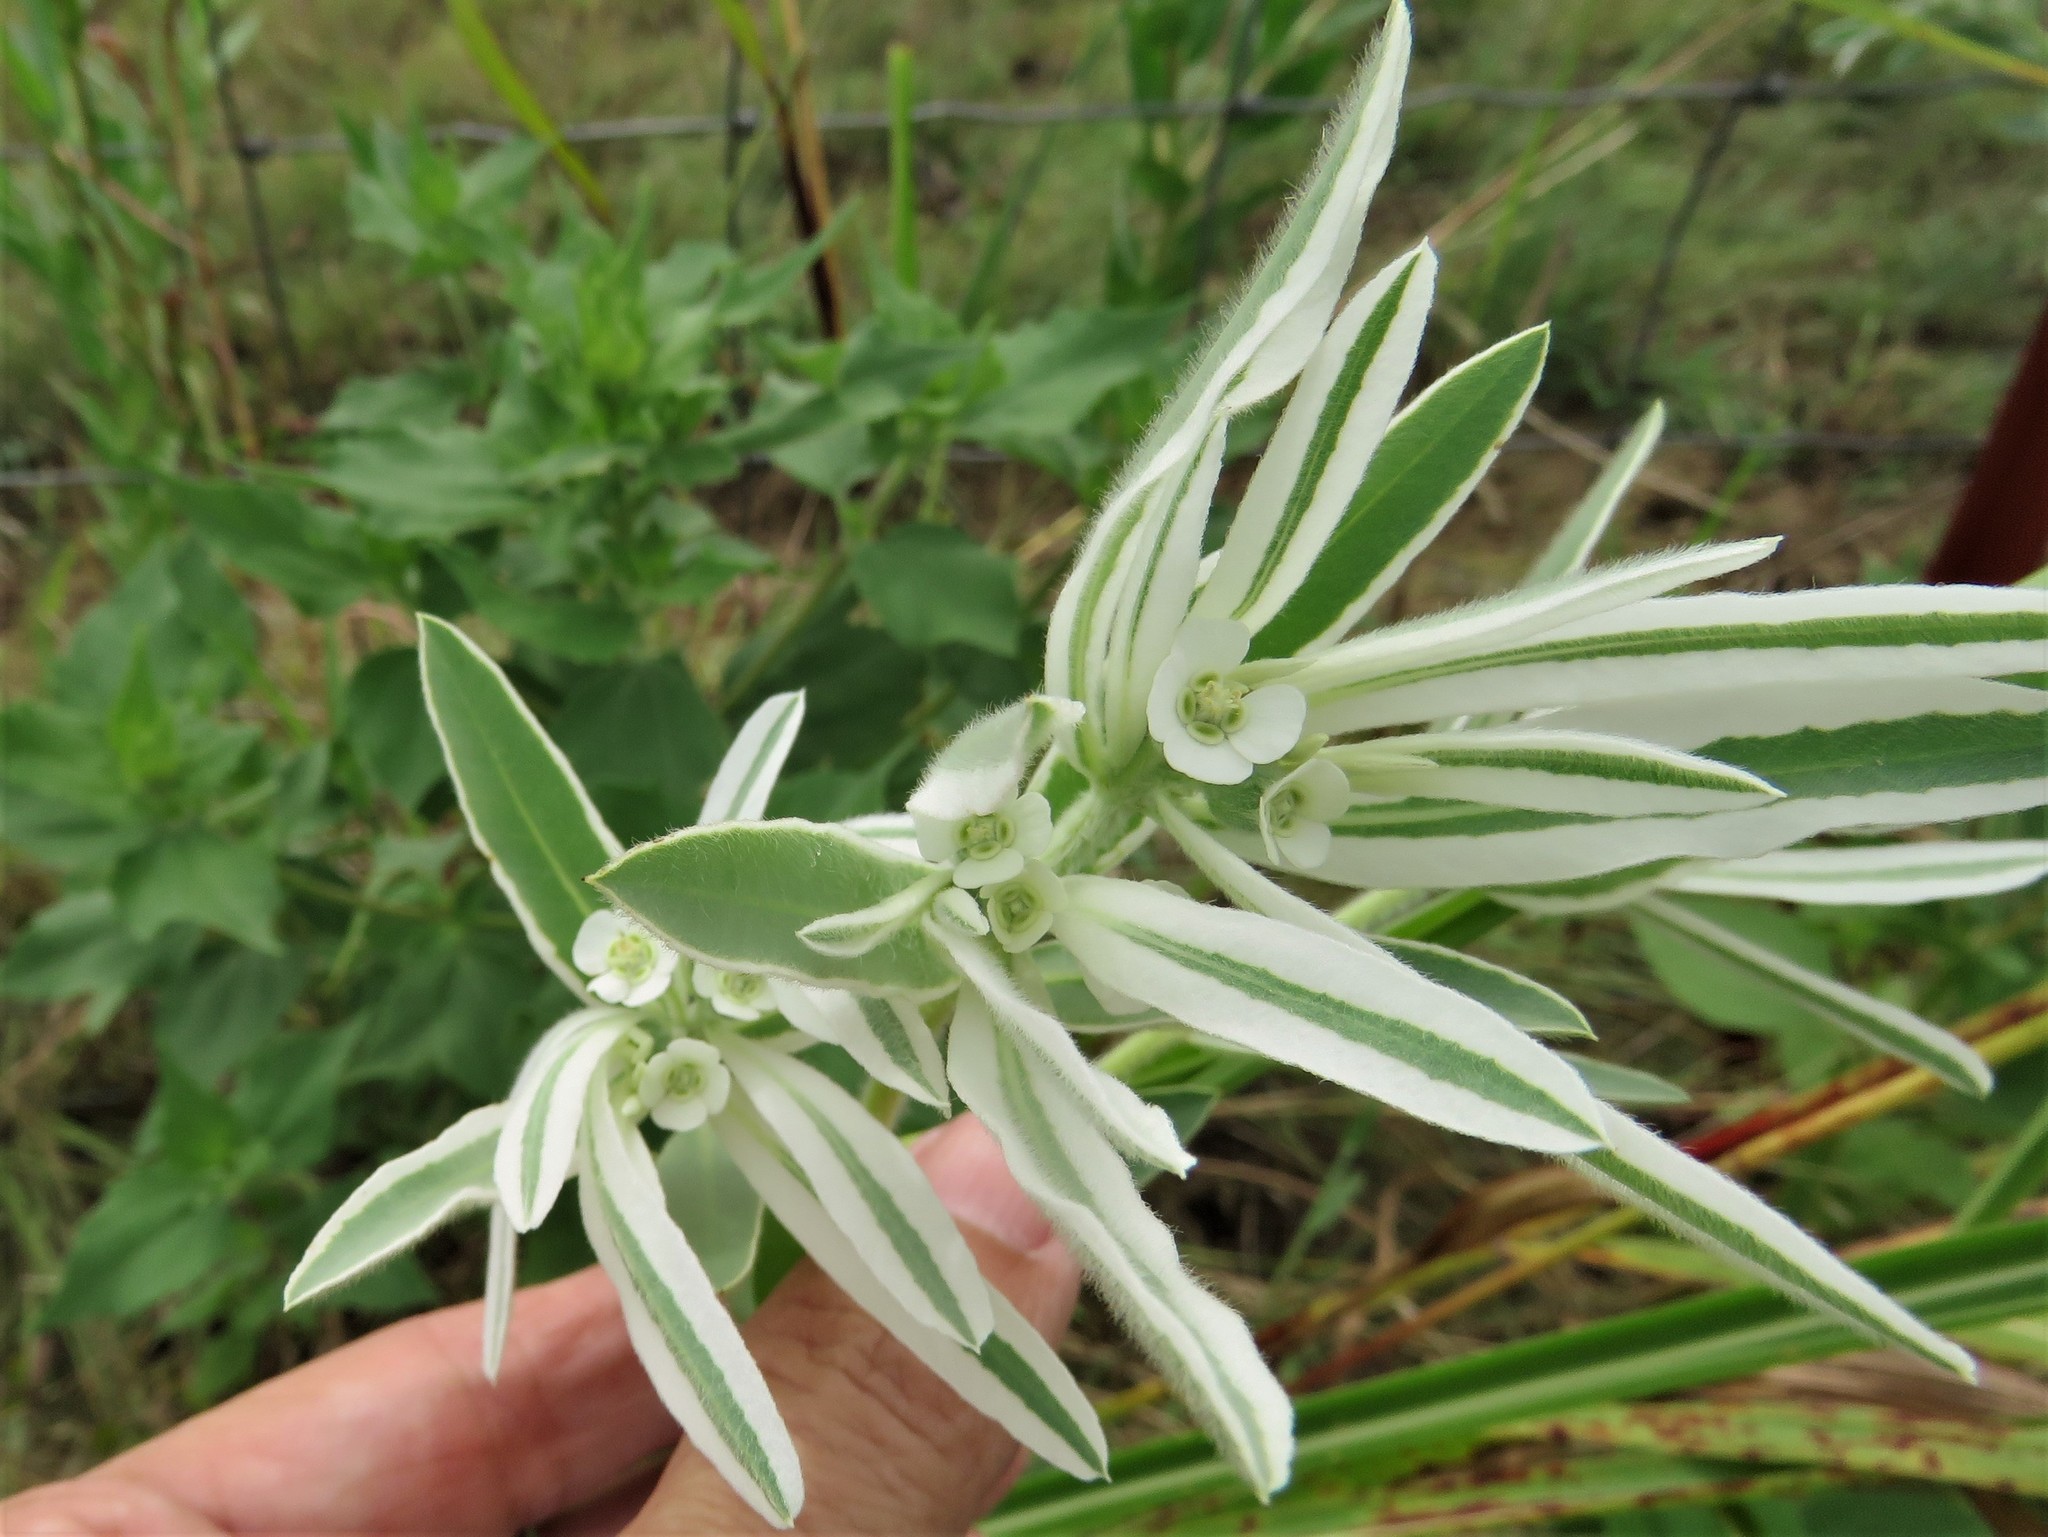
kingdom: Plantae
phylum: Tracheophyta
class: Magnoliopsida
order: Malpighiales
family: Euphorbiaceae
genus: Euphorbia
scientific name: Euphorbia bicolor
